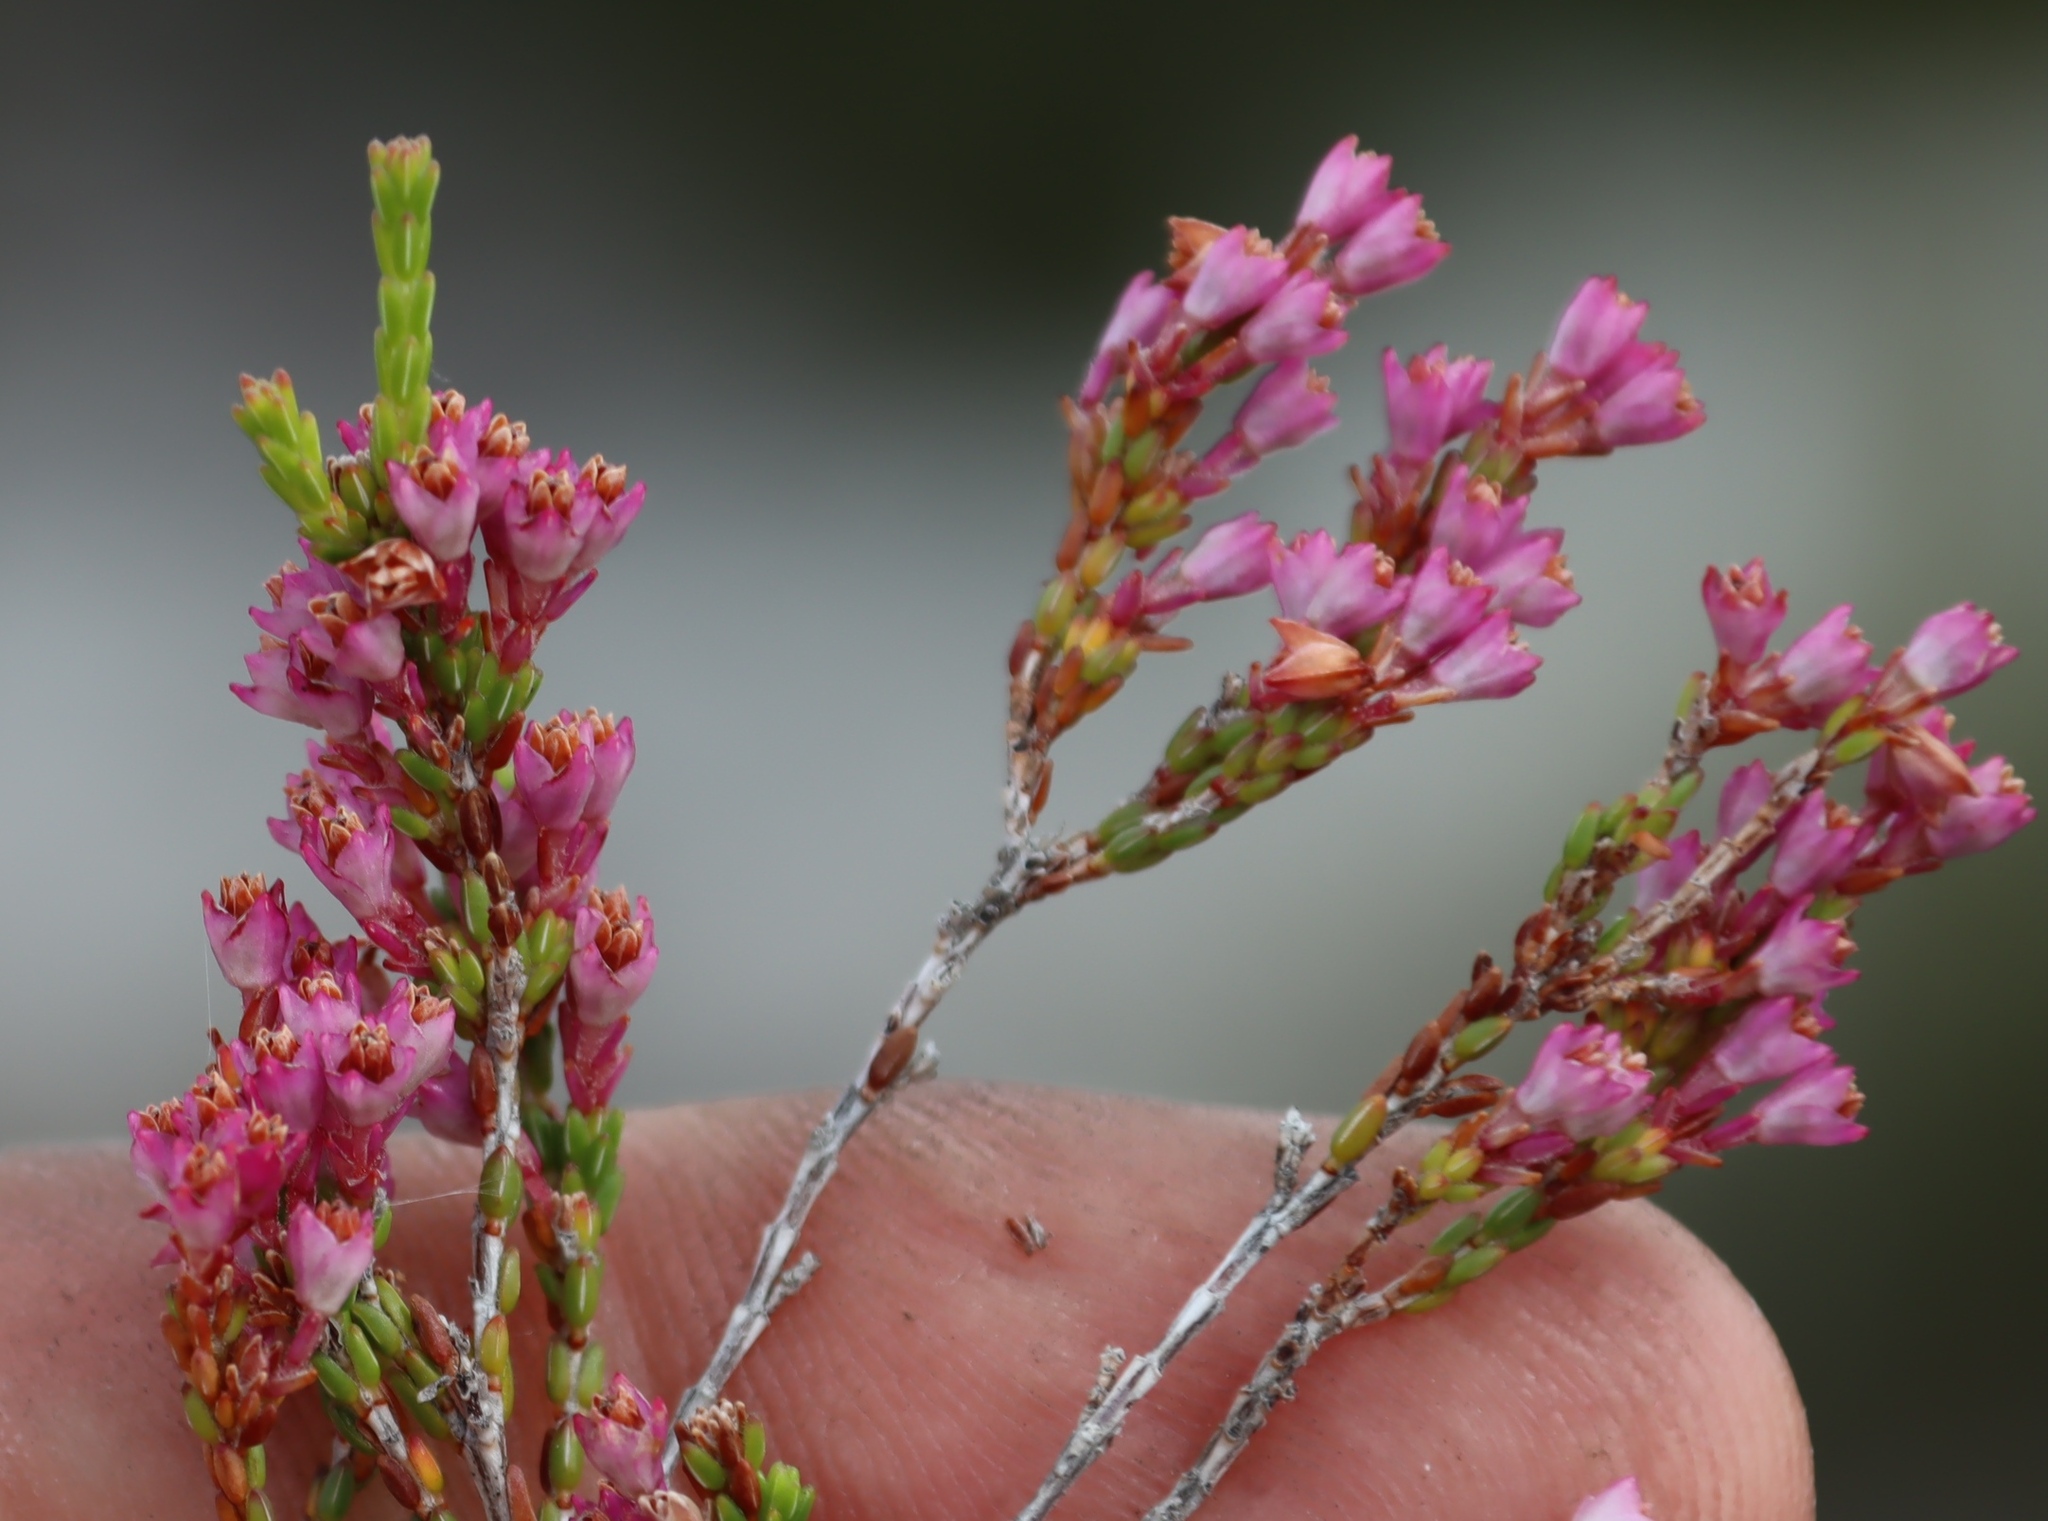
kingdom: Plantae
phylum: Tracheophyta
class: Magnoliopsida
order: Ericales
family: Ericaceae
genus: Erica
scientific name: Erica gnaphaloides
